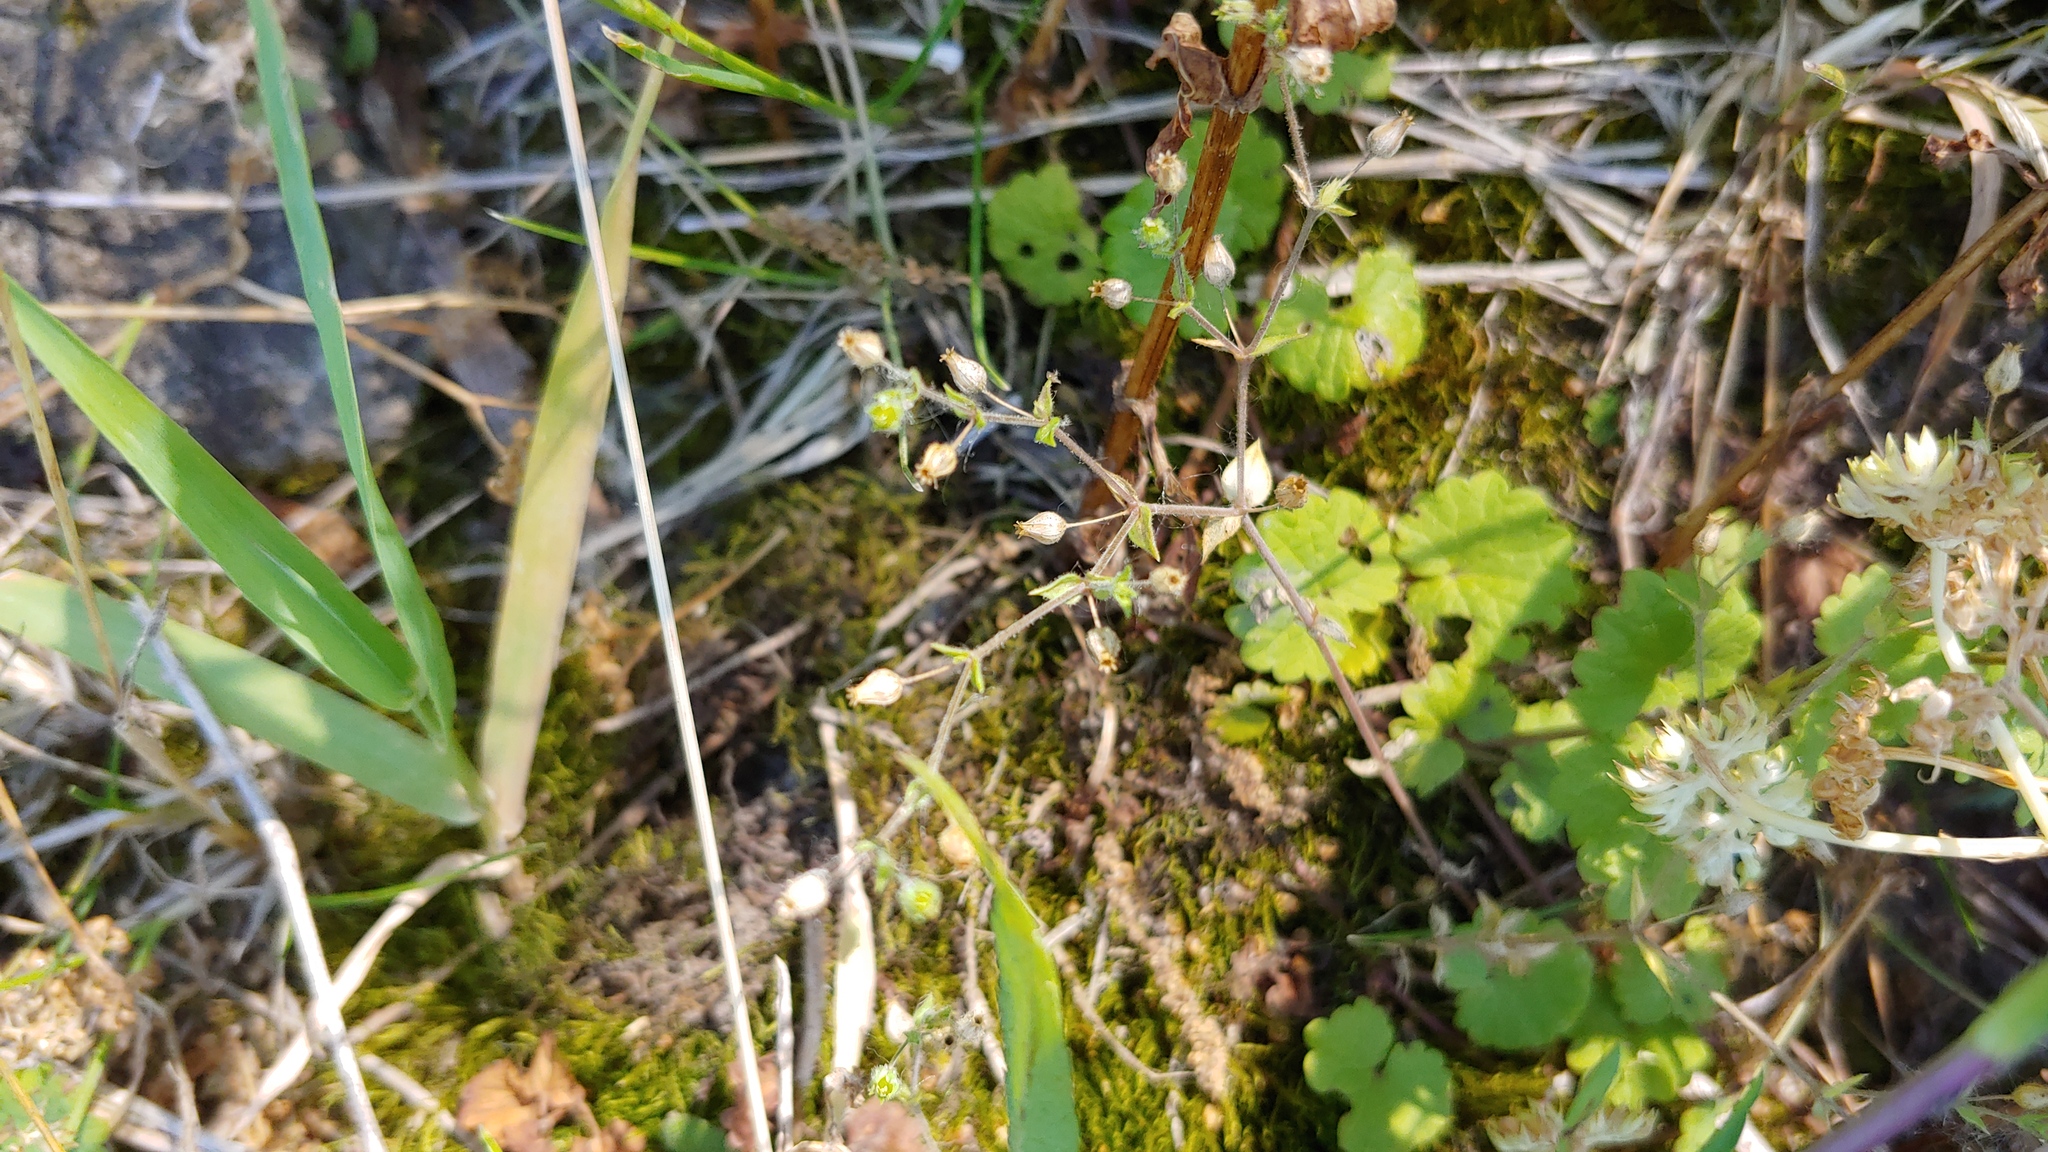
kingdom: Plantae
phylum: Tracheophyta
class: Magnoliopsida
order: Caryophyllales
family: Caryophyllaceae
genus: Arenaria
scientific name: Arenaria serpyllifolia
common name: Thyme-leaved sandwort
